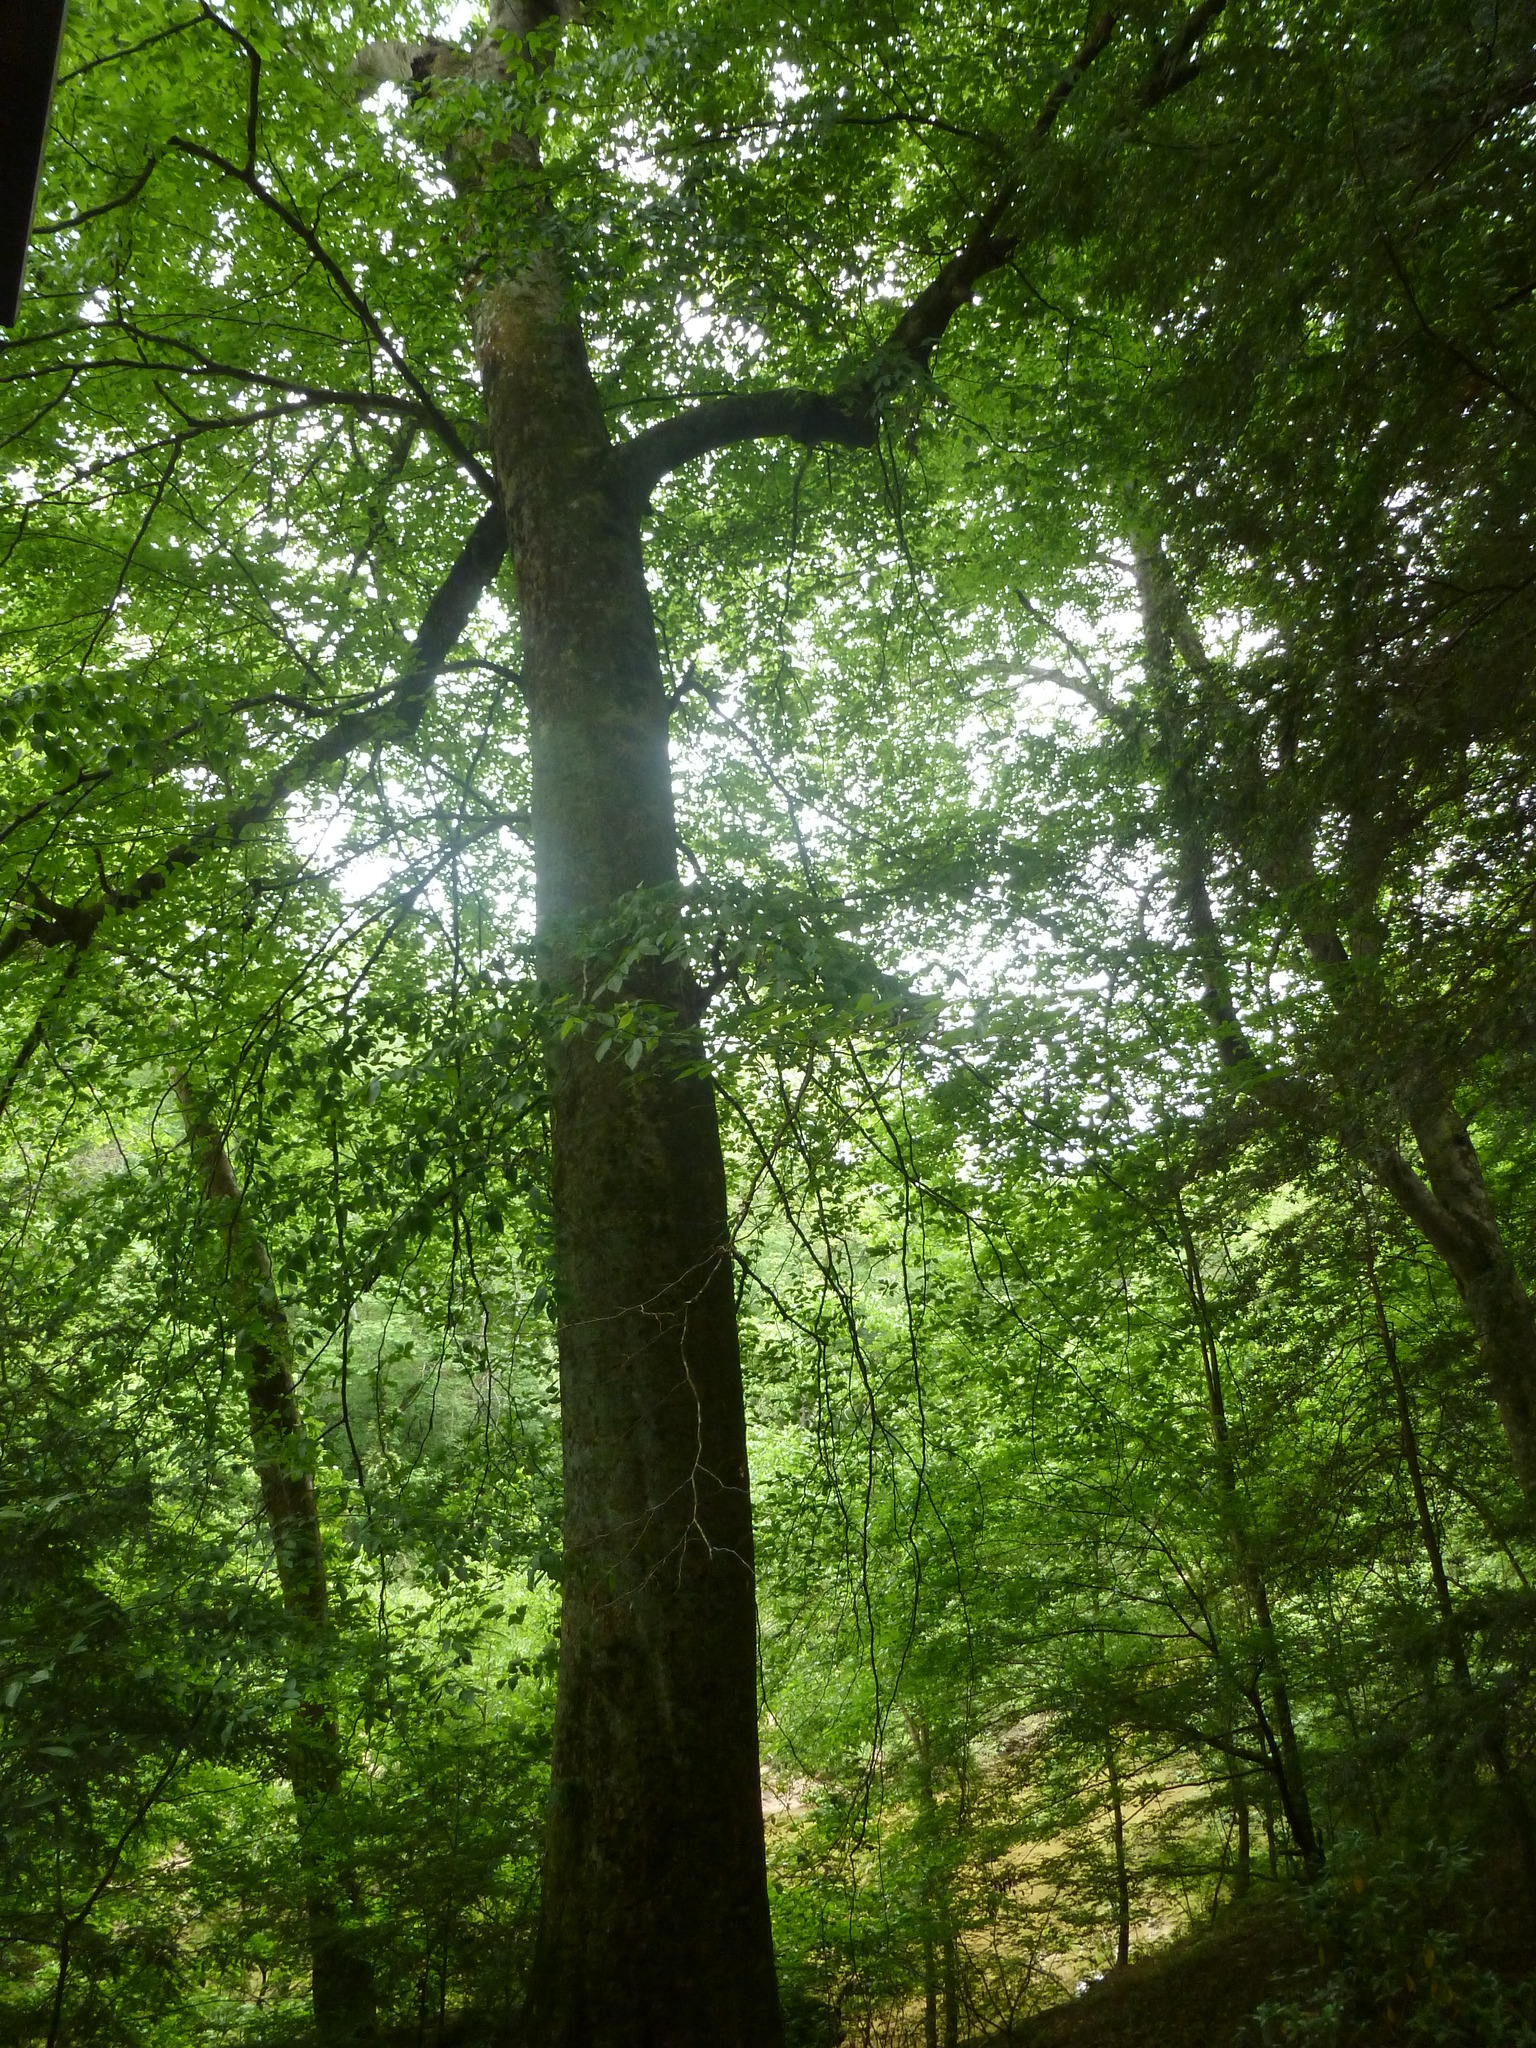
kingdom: Plantae
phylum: Tracheophyta
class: Magnoliopsida
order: Fagales
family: Fagaceae
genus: Fagus
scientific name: Fagus grandifolia
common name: American beech
